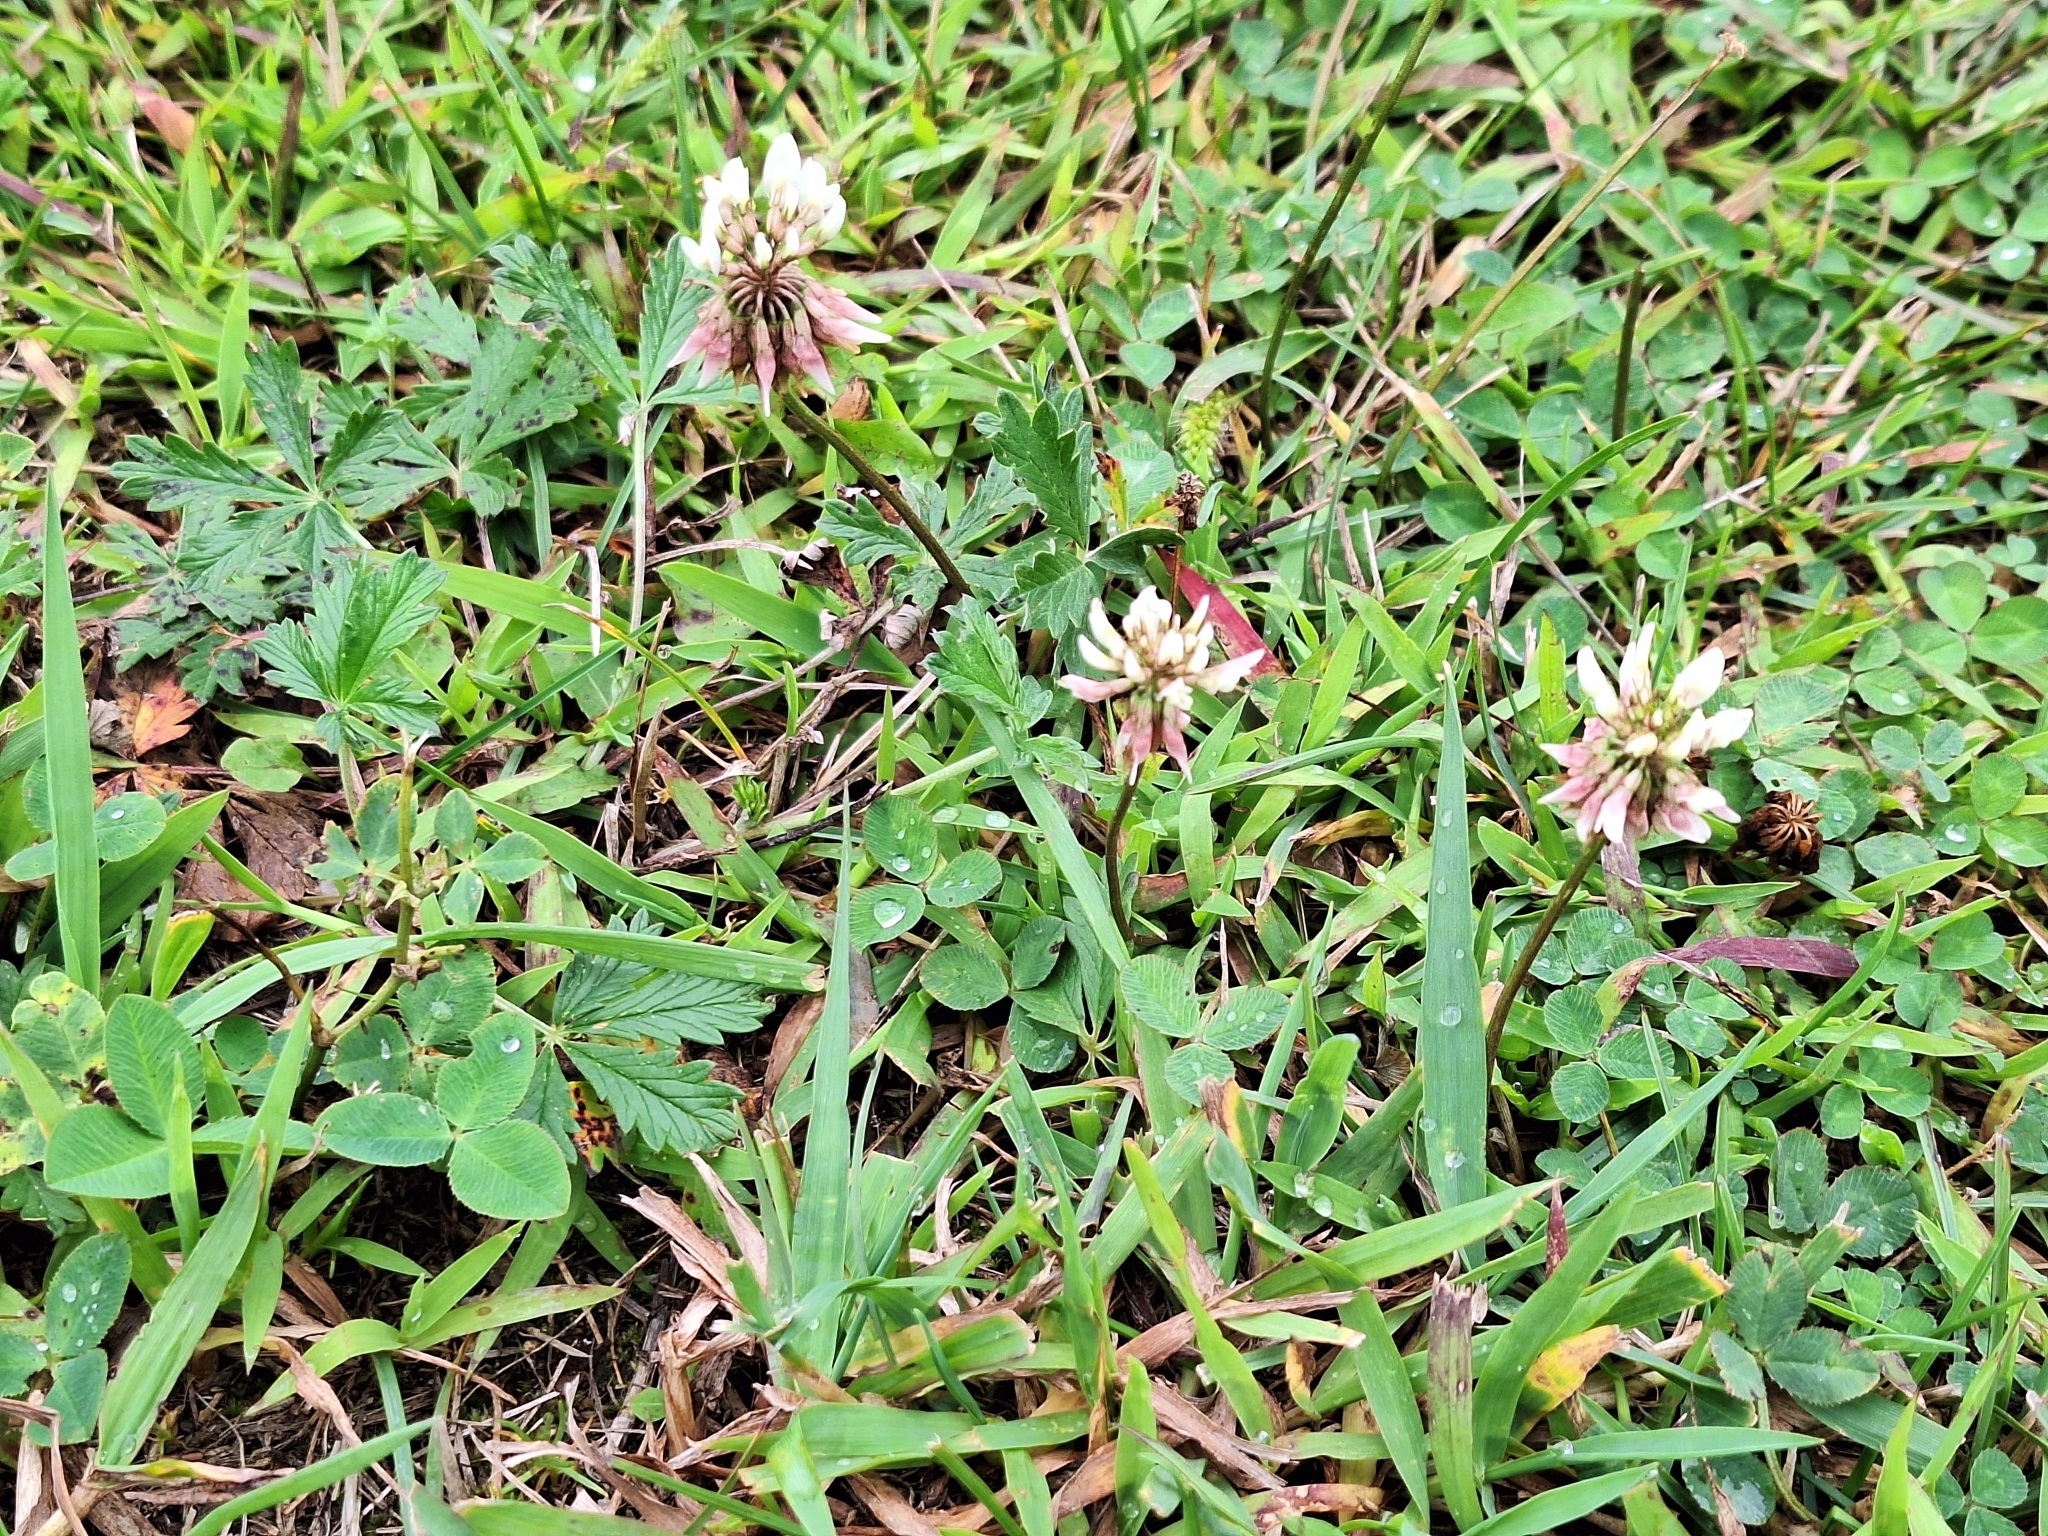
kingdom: Plantae
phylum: Tracheophyta
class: Magnoliopsida
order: Fabales
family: Fabaceae
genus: Trifolium
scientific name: Trifolium repens
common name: White clover
